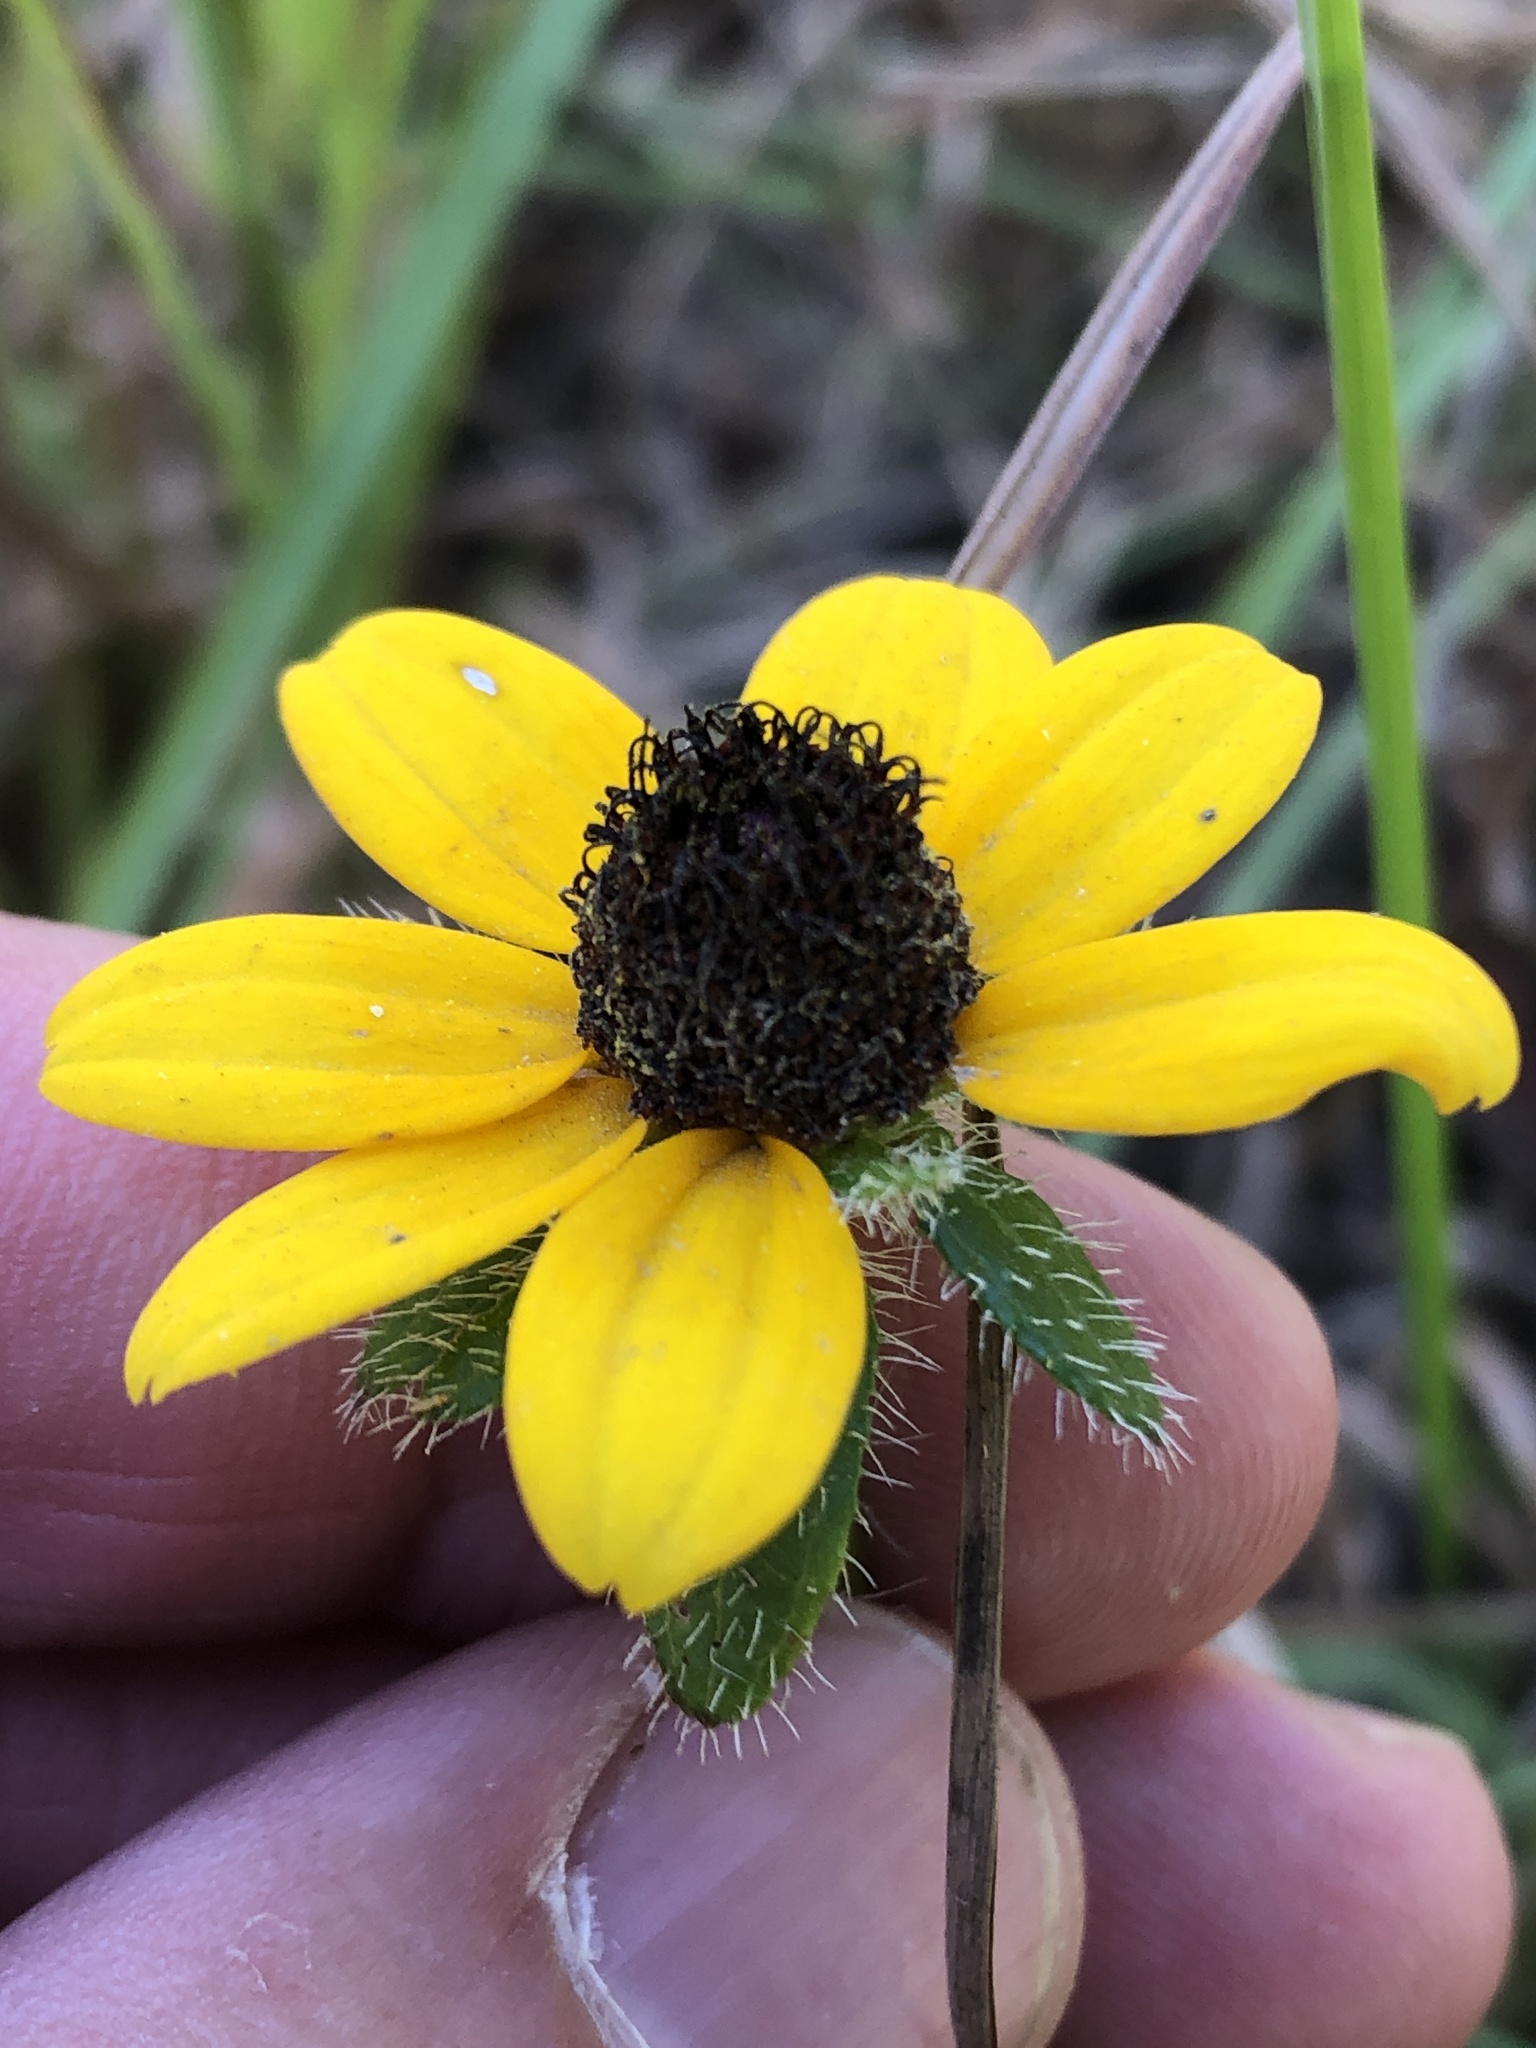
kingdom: Plantae
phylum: Tracheophyta
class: Magnoliopsida
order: Asterales
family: Asteraceae
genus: Rudbeckia
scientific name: Rudbeckia hirta
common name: Black-eyed-susan
